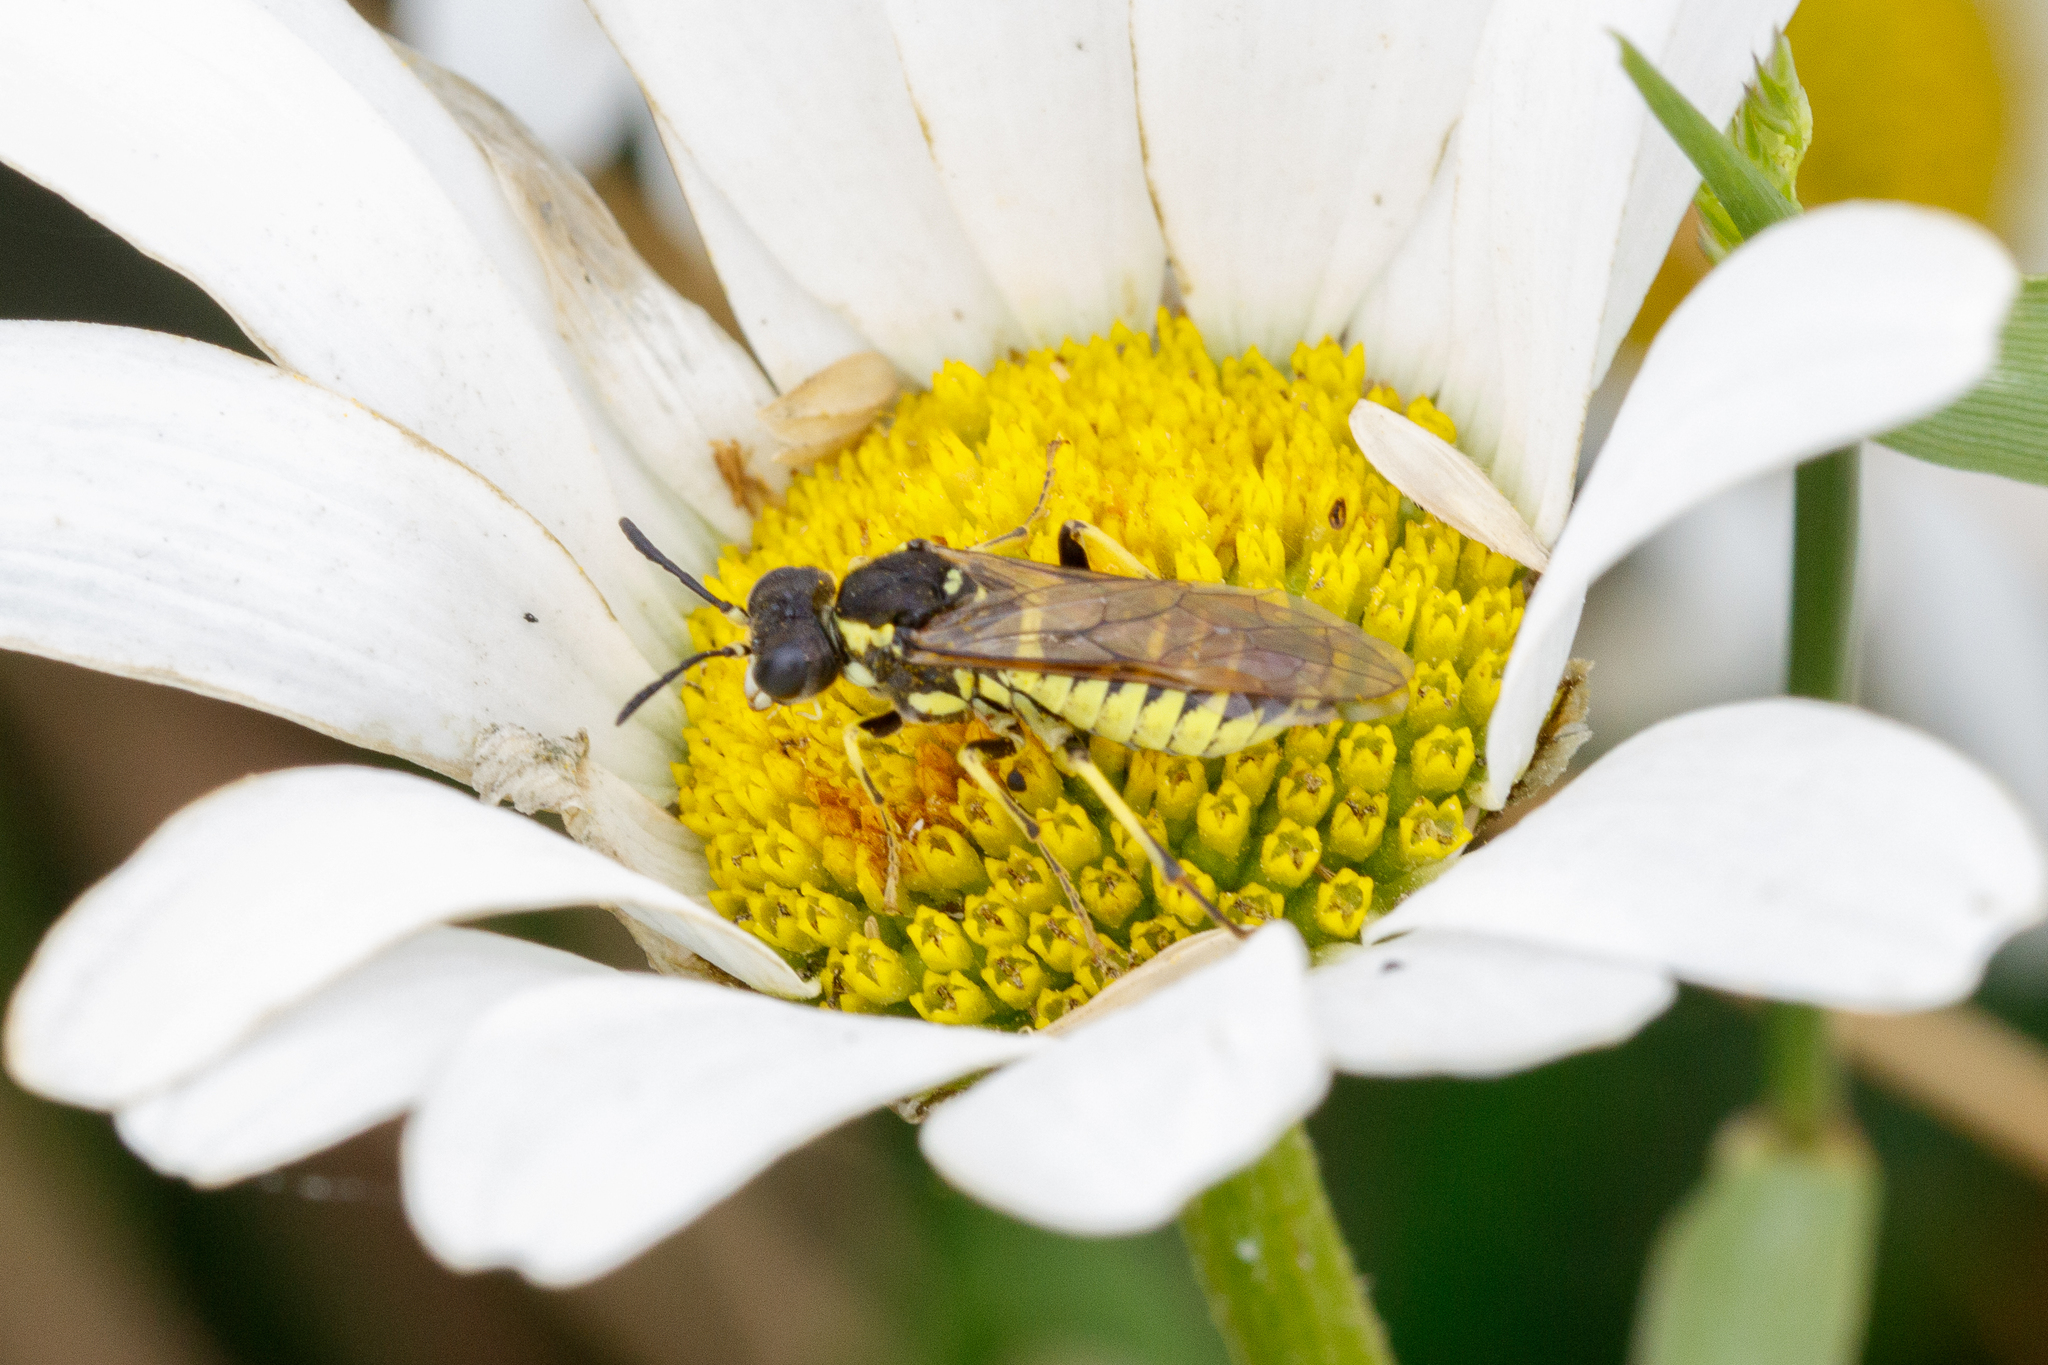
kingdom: Animalia
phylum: Arthropoda
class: Insecta
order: Hymenoptera
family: Tenthredinidae
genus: Tenthredo
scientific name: Tenthredo notha
